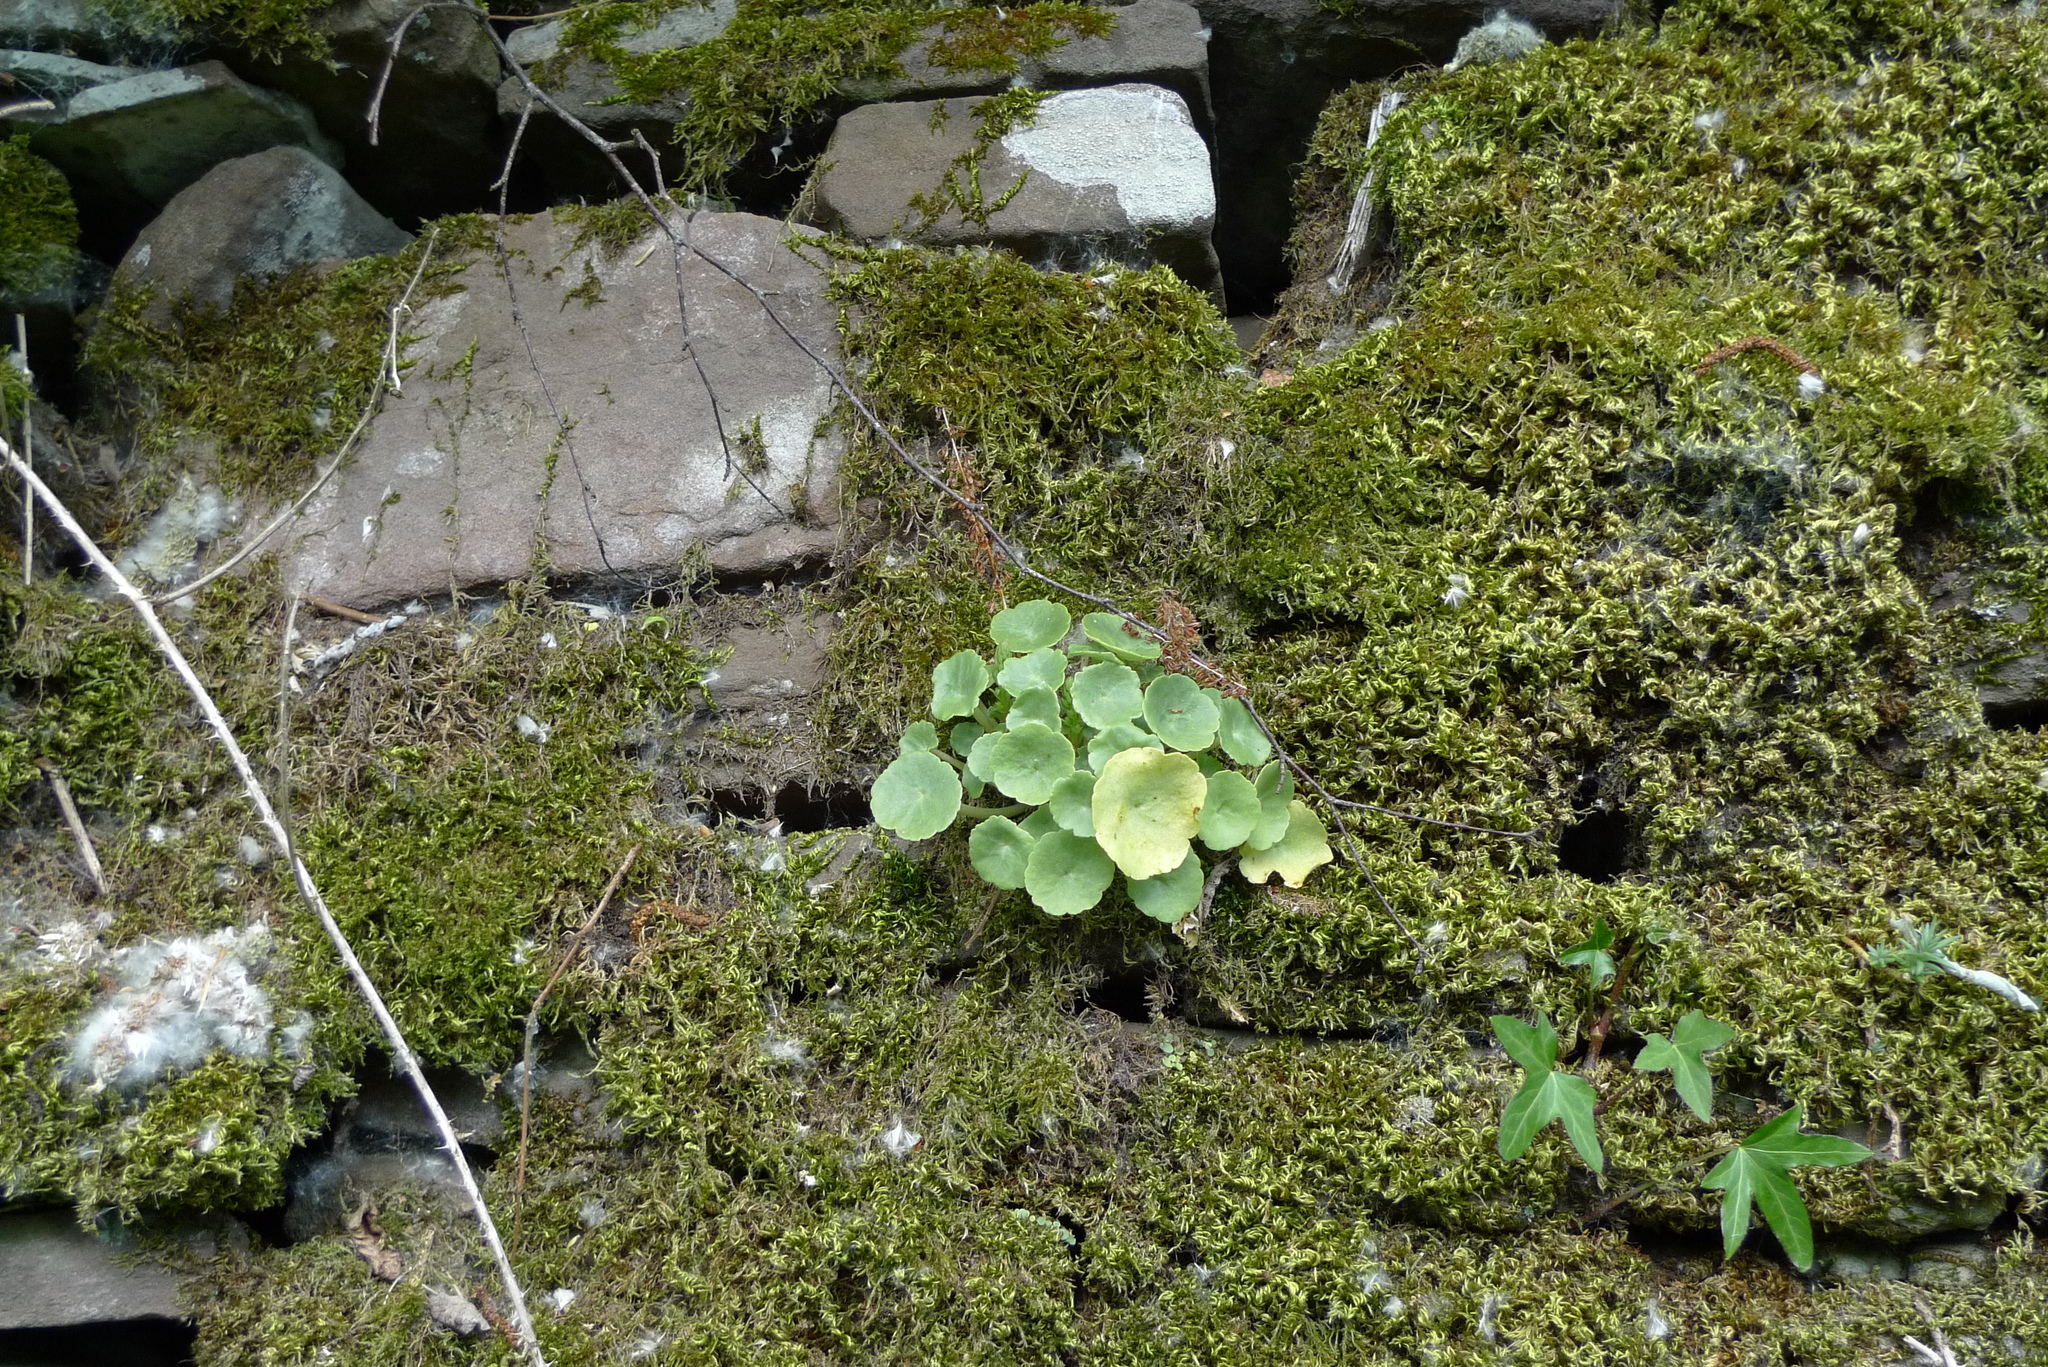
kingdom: Plantae
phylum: Tracheophyta
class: Magnoliopsida
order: Saxifragales
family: Crassulaceae
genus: Umbilicus
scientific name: Umbilicus rupestris
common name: Navelwort
